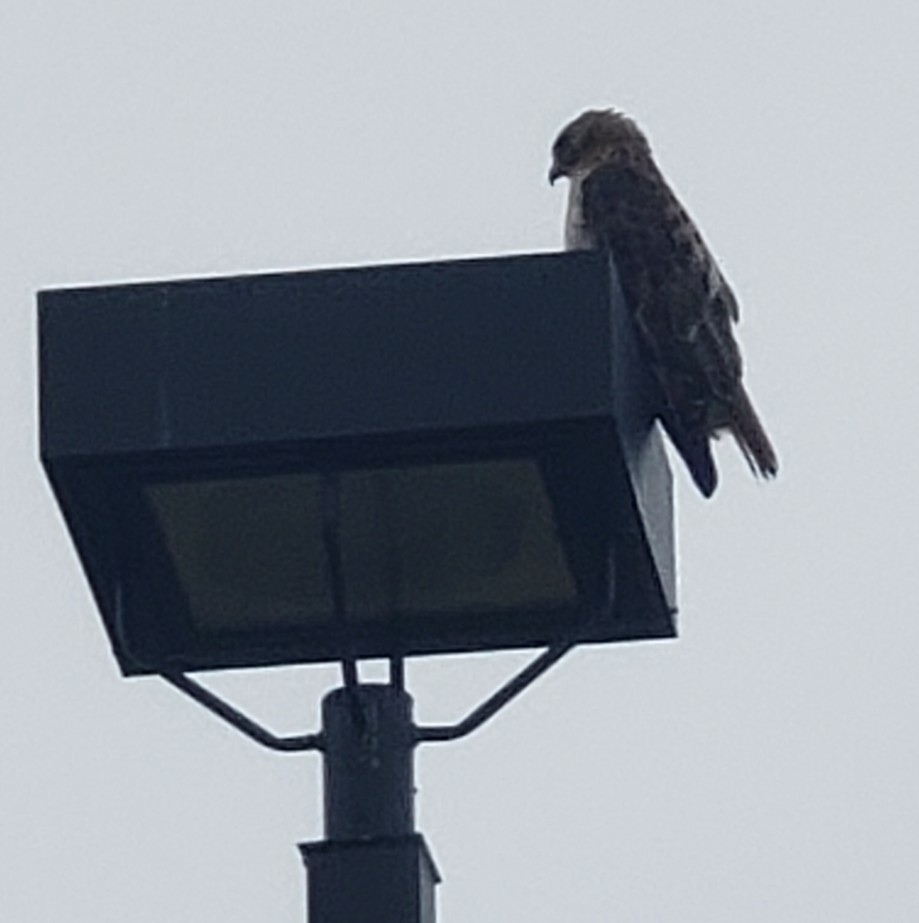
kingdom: Animalia
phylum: Chordata
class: Aves
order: Accipitriformes
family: Accipitridae
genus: Buteo
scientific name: Buteo jamaicensis
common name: Red-tailed hawk
